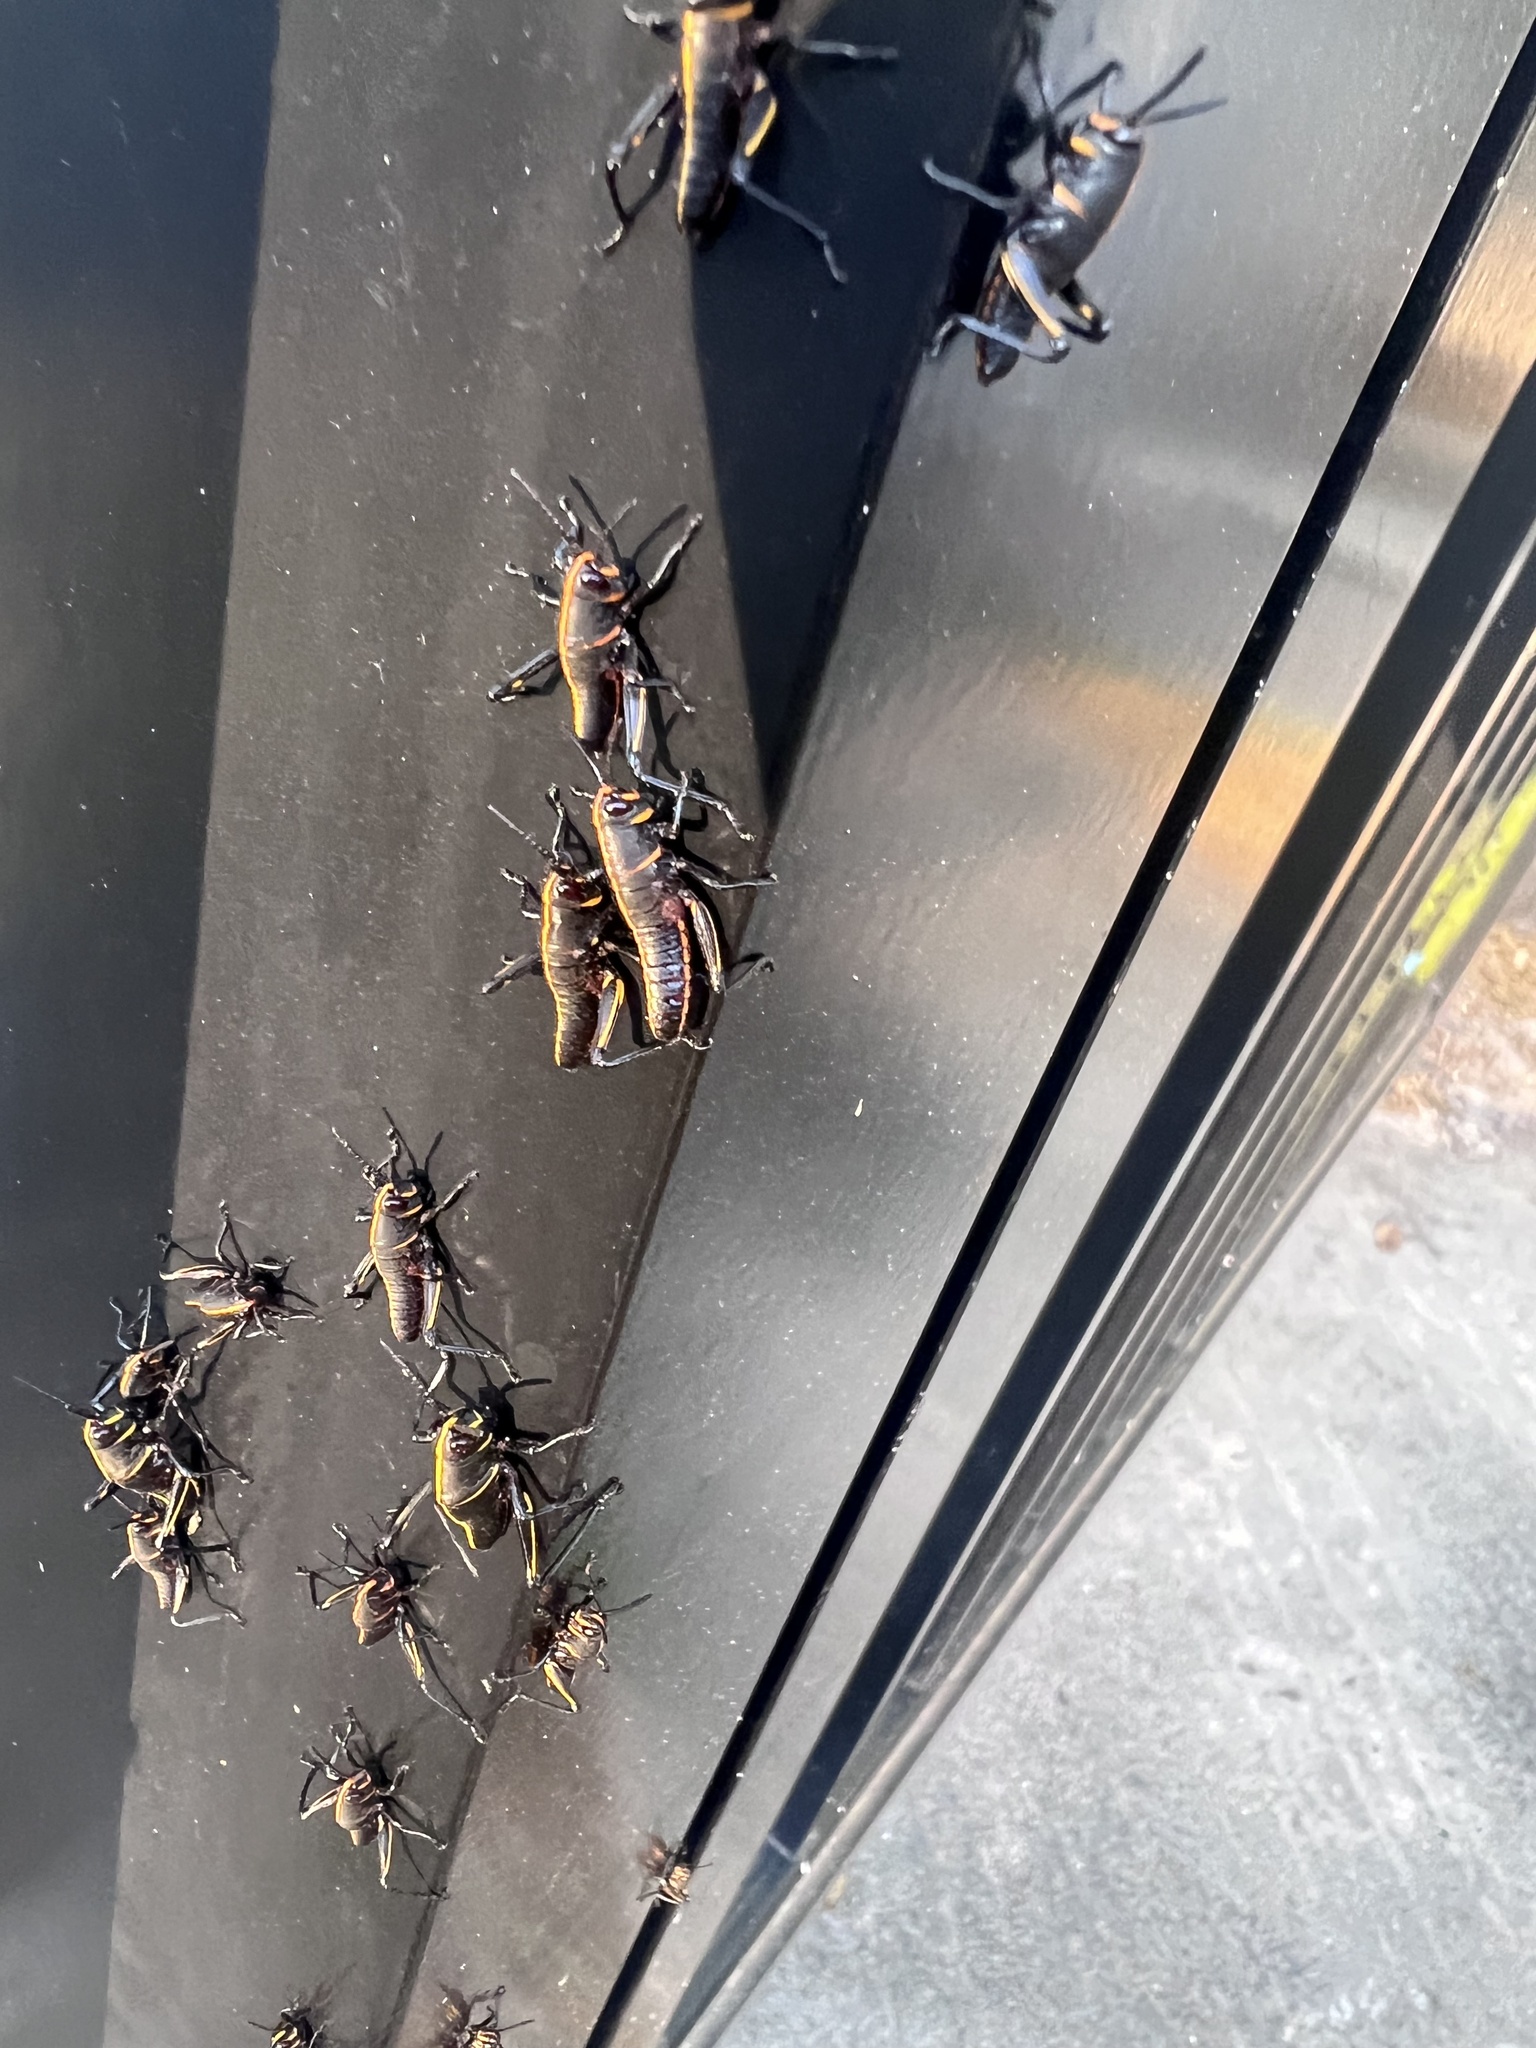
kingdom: Animalia
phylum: Arthropoda
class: Insecta
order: Orthoptera
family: Romaleidae
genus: Romalea
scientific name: Romalea microptera
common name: Eastern lubber grasshopper
